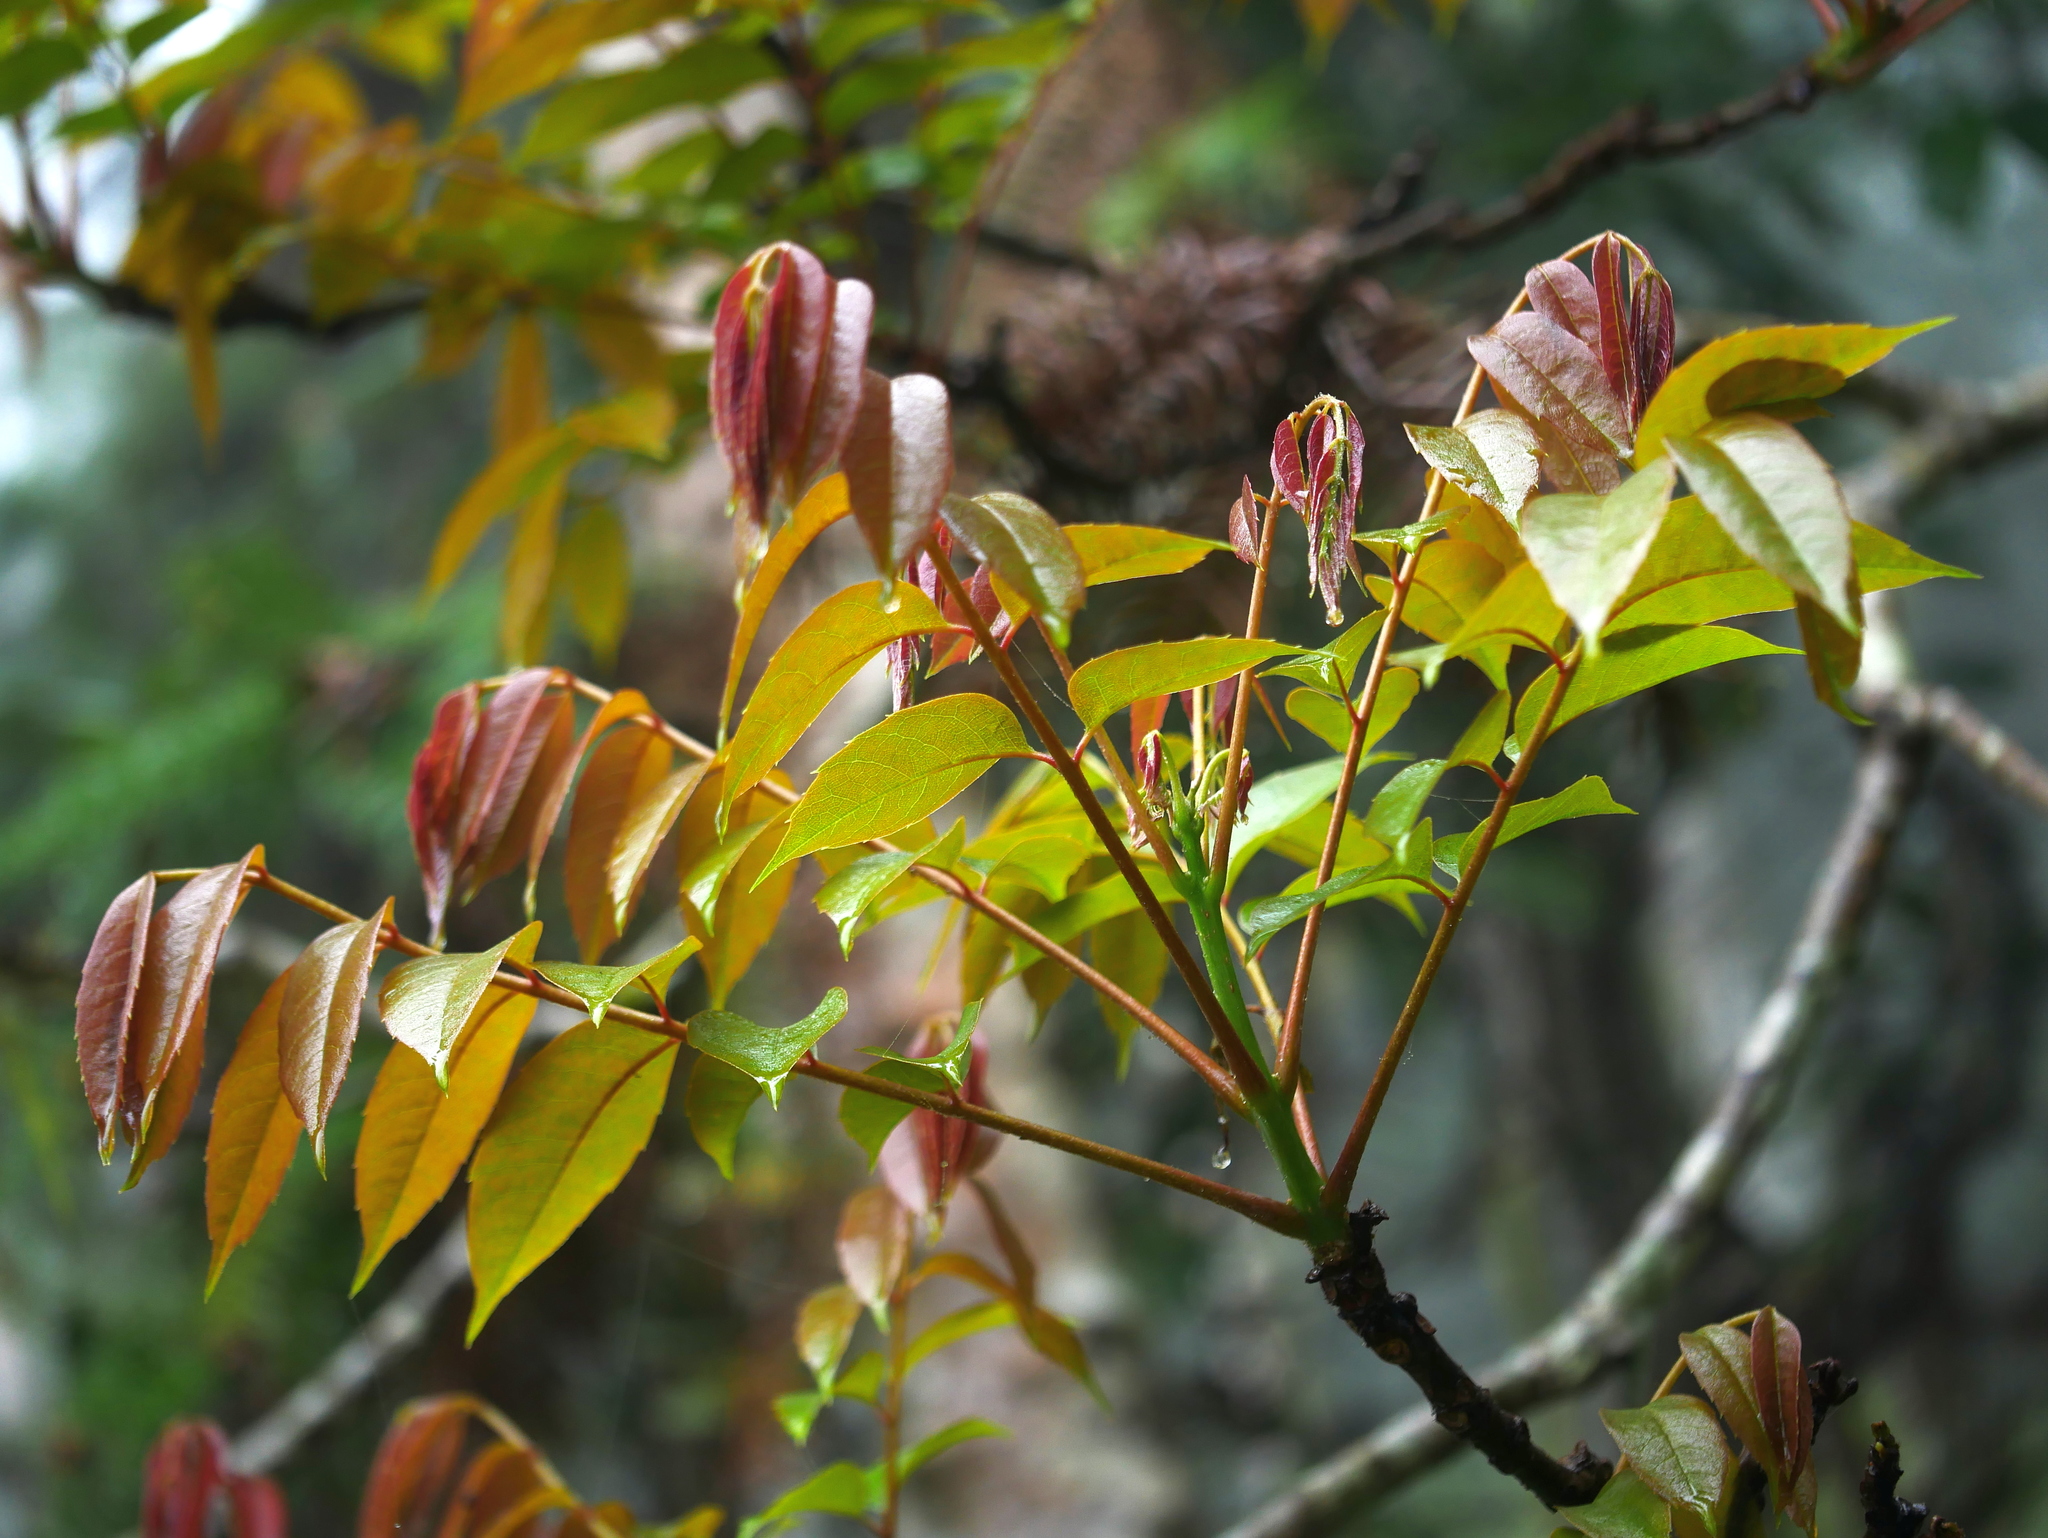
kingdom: Plantae
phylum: Tracheophyta
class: Magnoliopsida
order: Proteales
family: Sabiaceae
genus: Meliosma
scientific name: Meliosma rhoifolia
